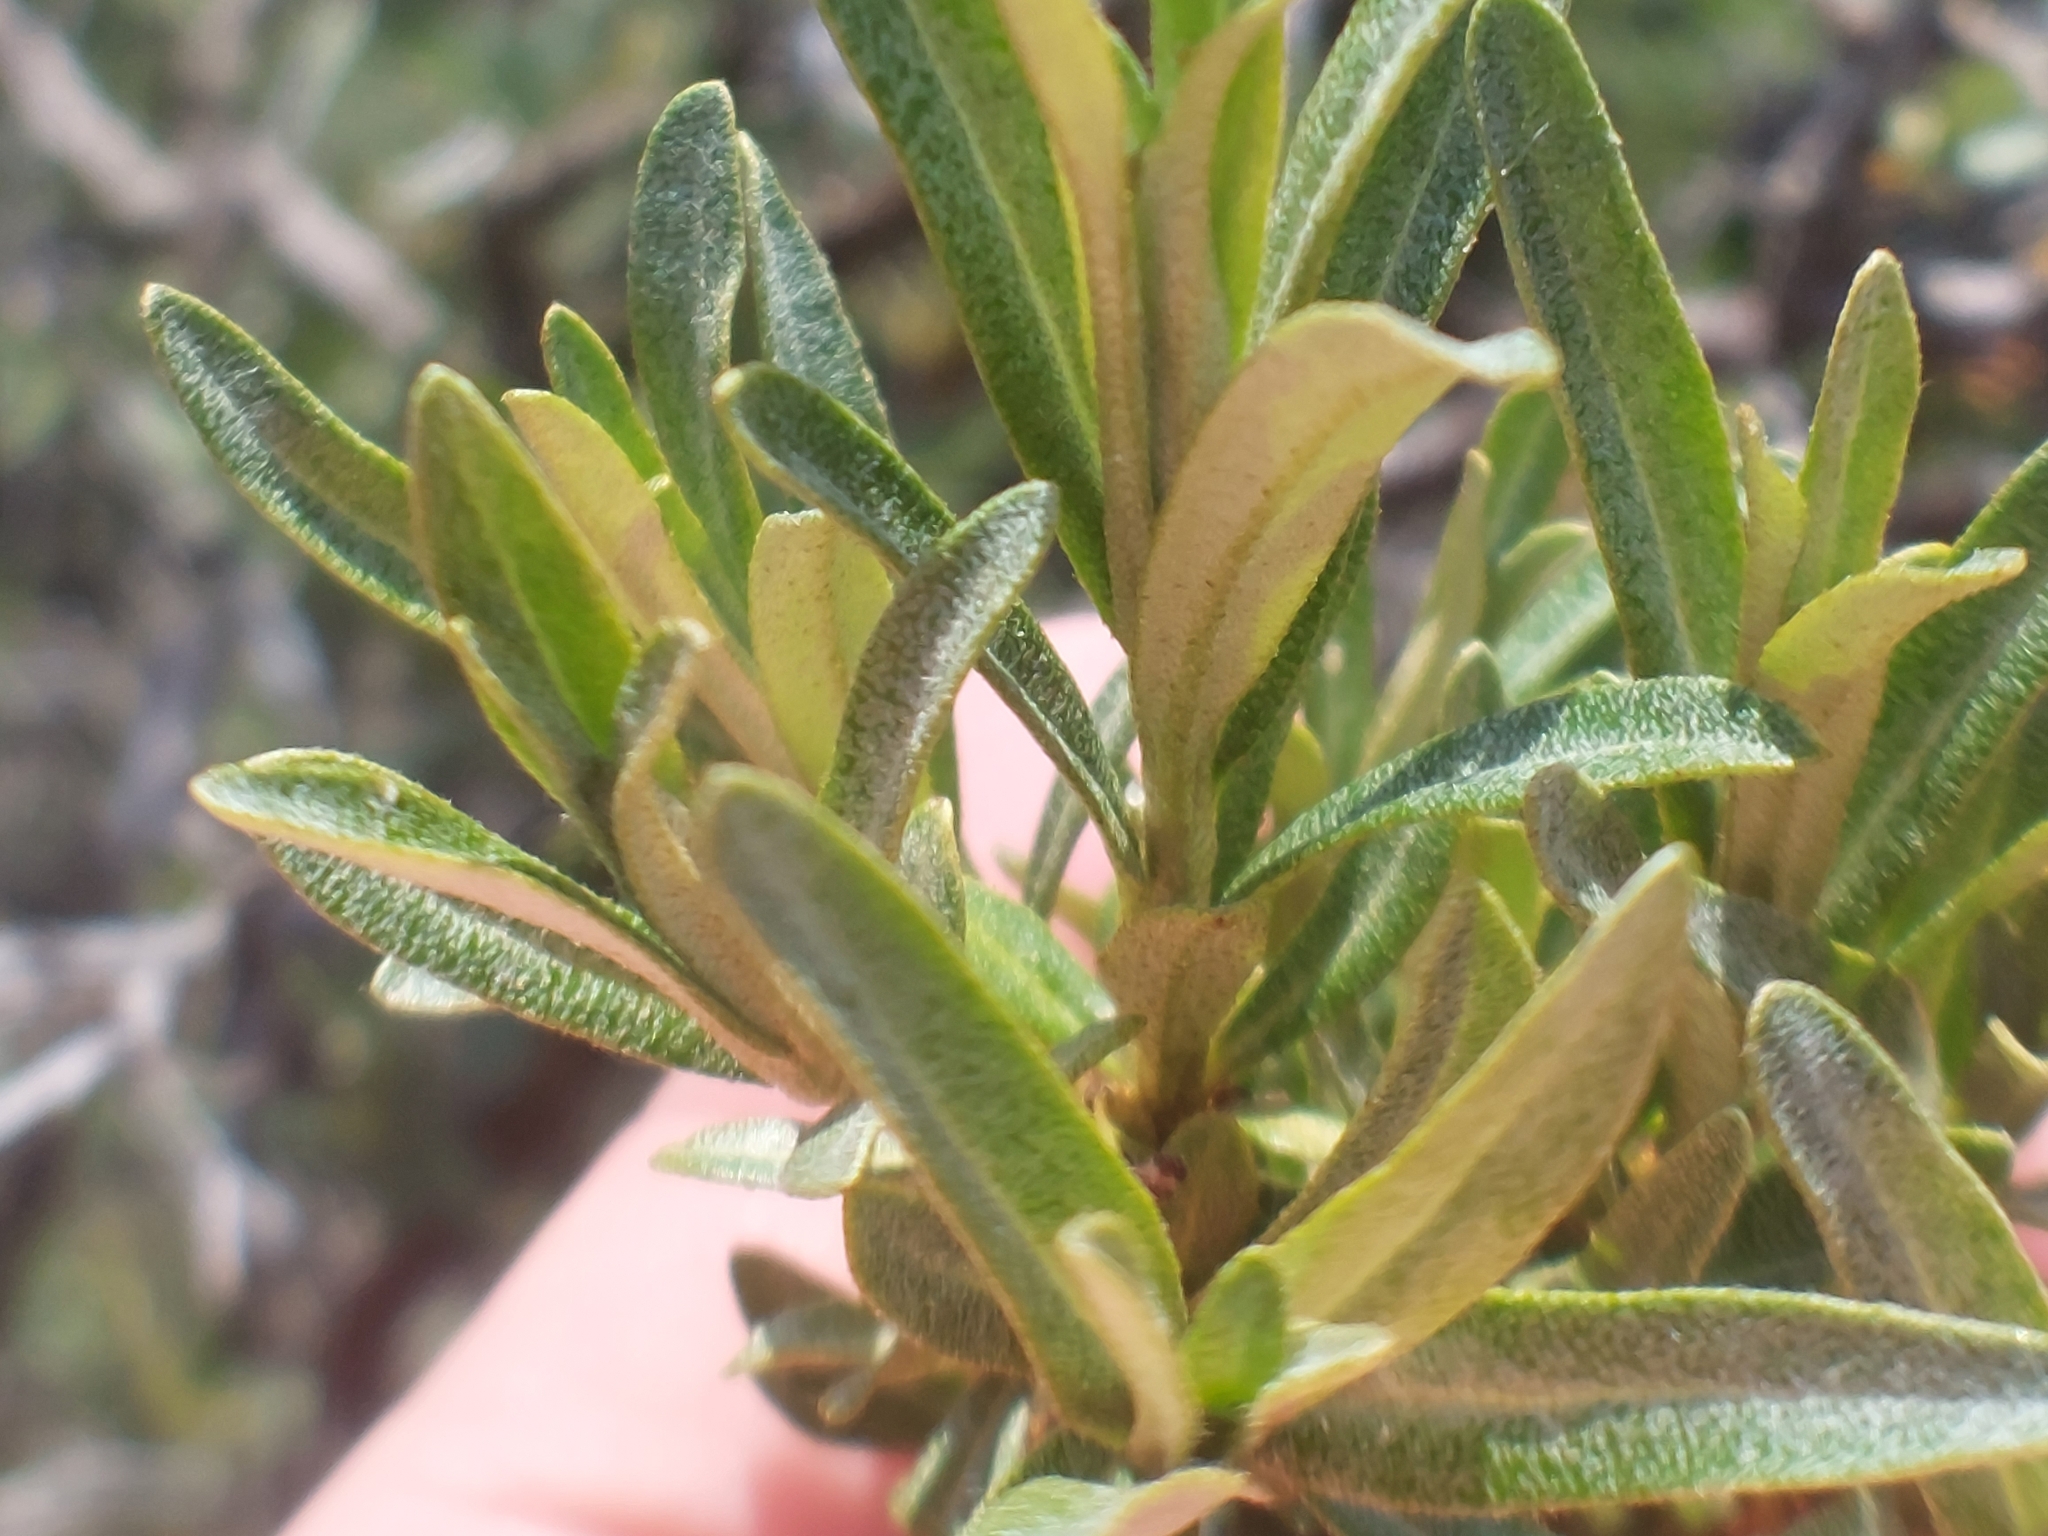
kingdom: Plantae
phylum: Tracheophyta
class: Magnoliopsida
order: Rosales
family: Elaeagnaceae
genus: Hippophae
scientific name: Hippophae rhamnoides
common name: Sea-buckthorn
